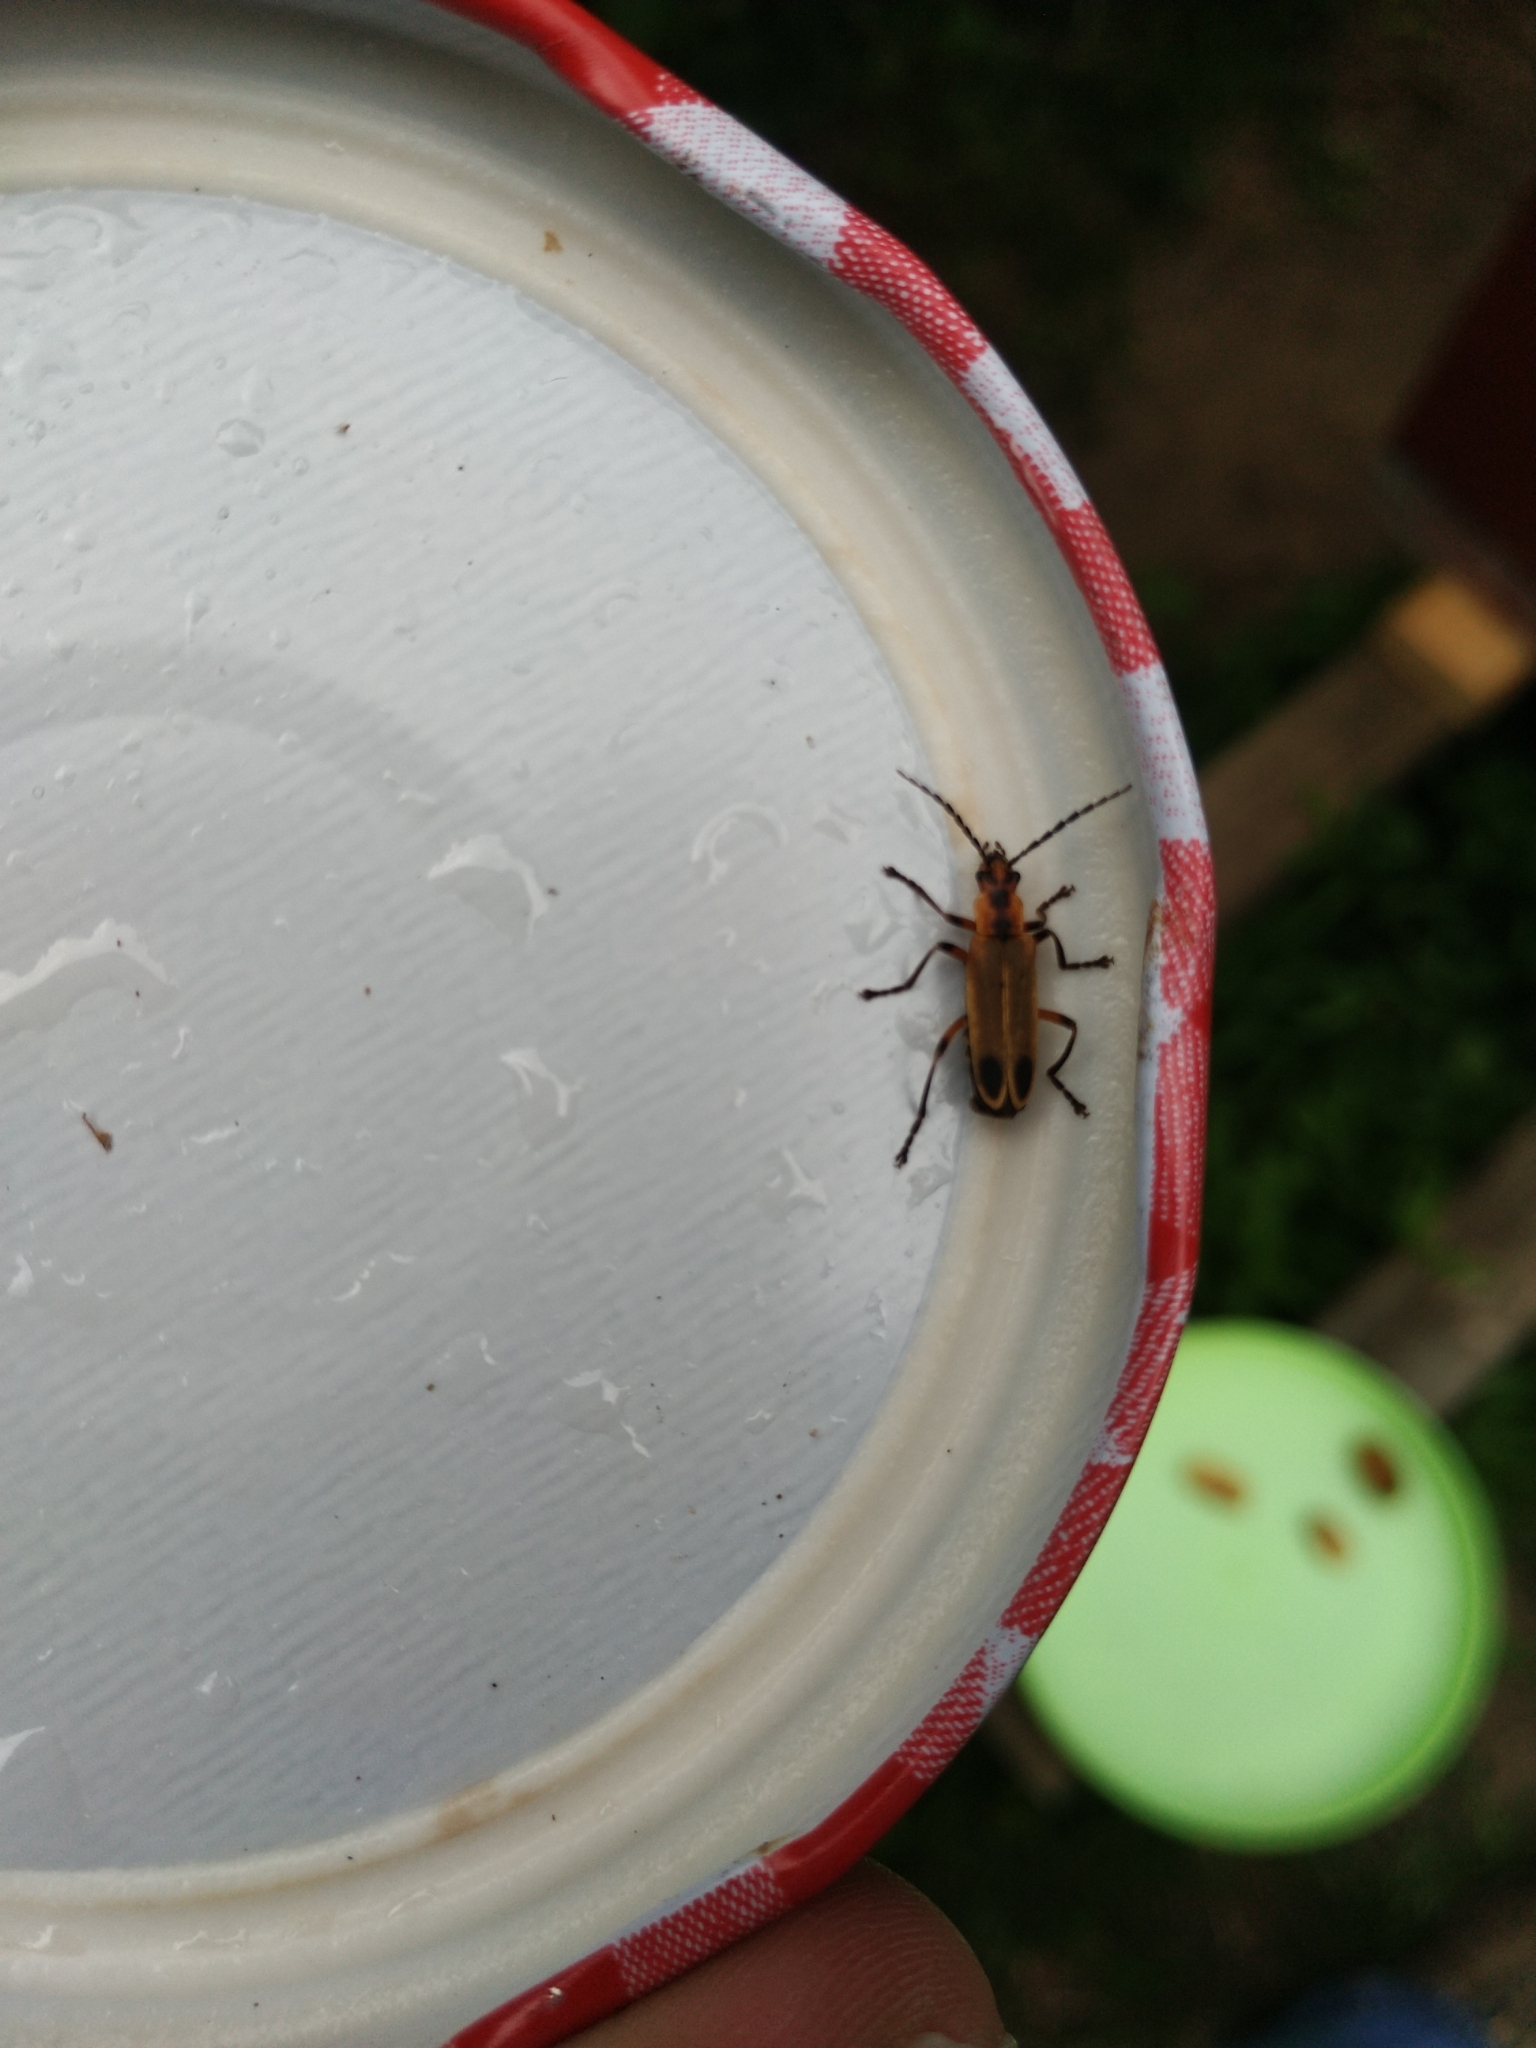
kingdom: Animalia
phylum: Arthropoda
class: Insecta
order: Coleoptera
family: Cantharidae
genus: Chauliognathus
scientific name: Chauliognathus marginatus
